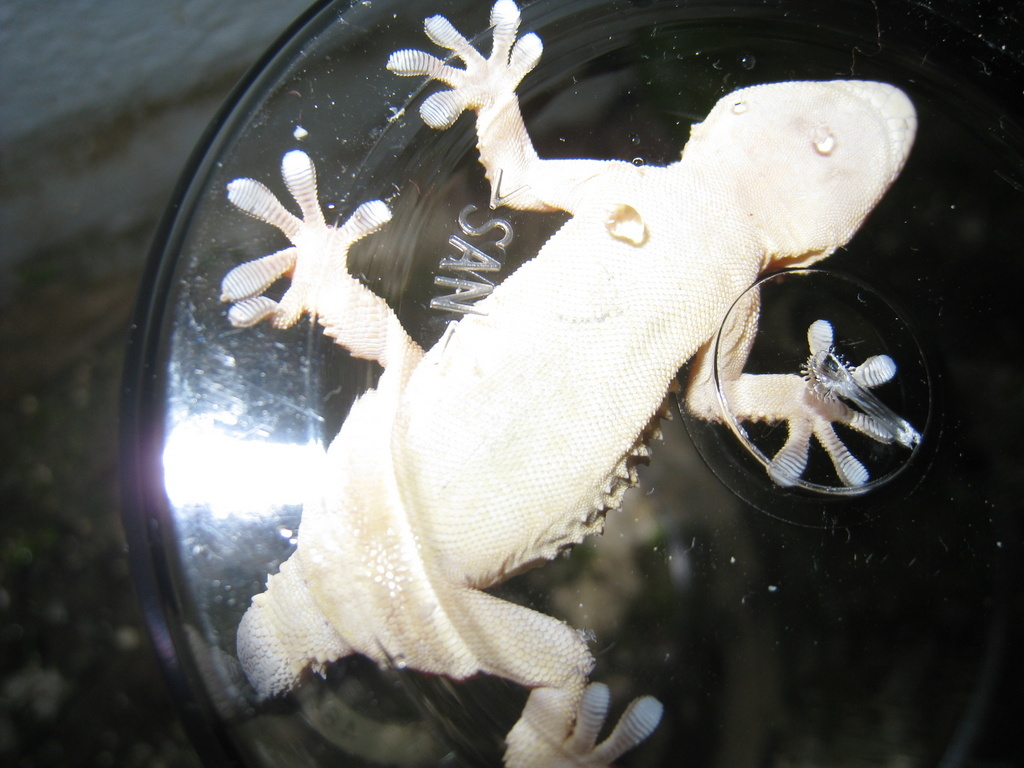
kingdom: Animalia
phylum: Chordata
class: Squamata
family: Phyllodactylidae
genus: Tarentola
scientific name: Tarentola mauritanica
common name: Moorish gecko
